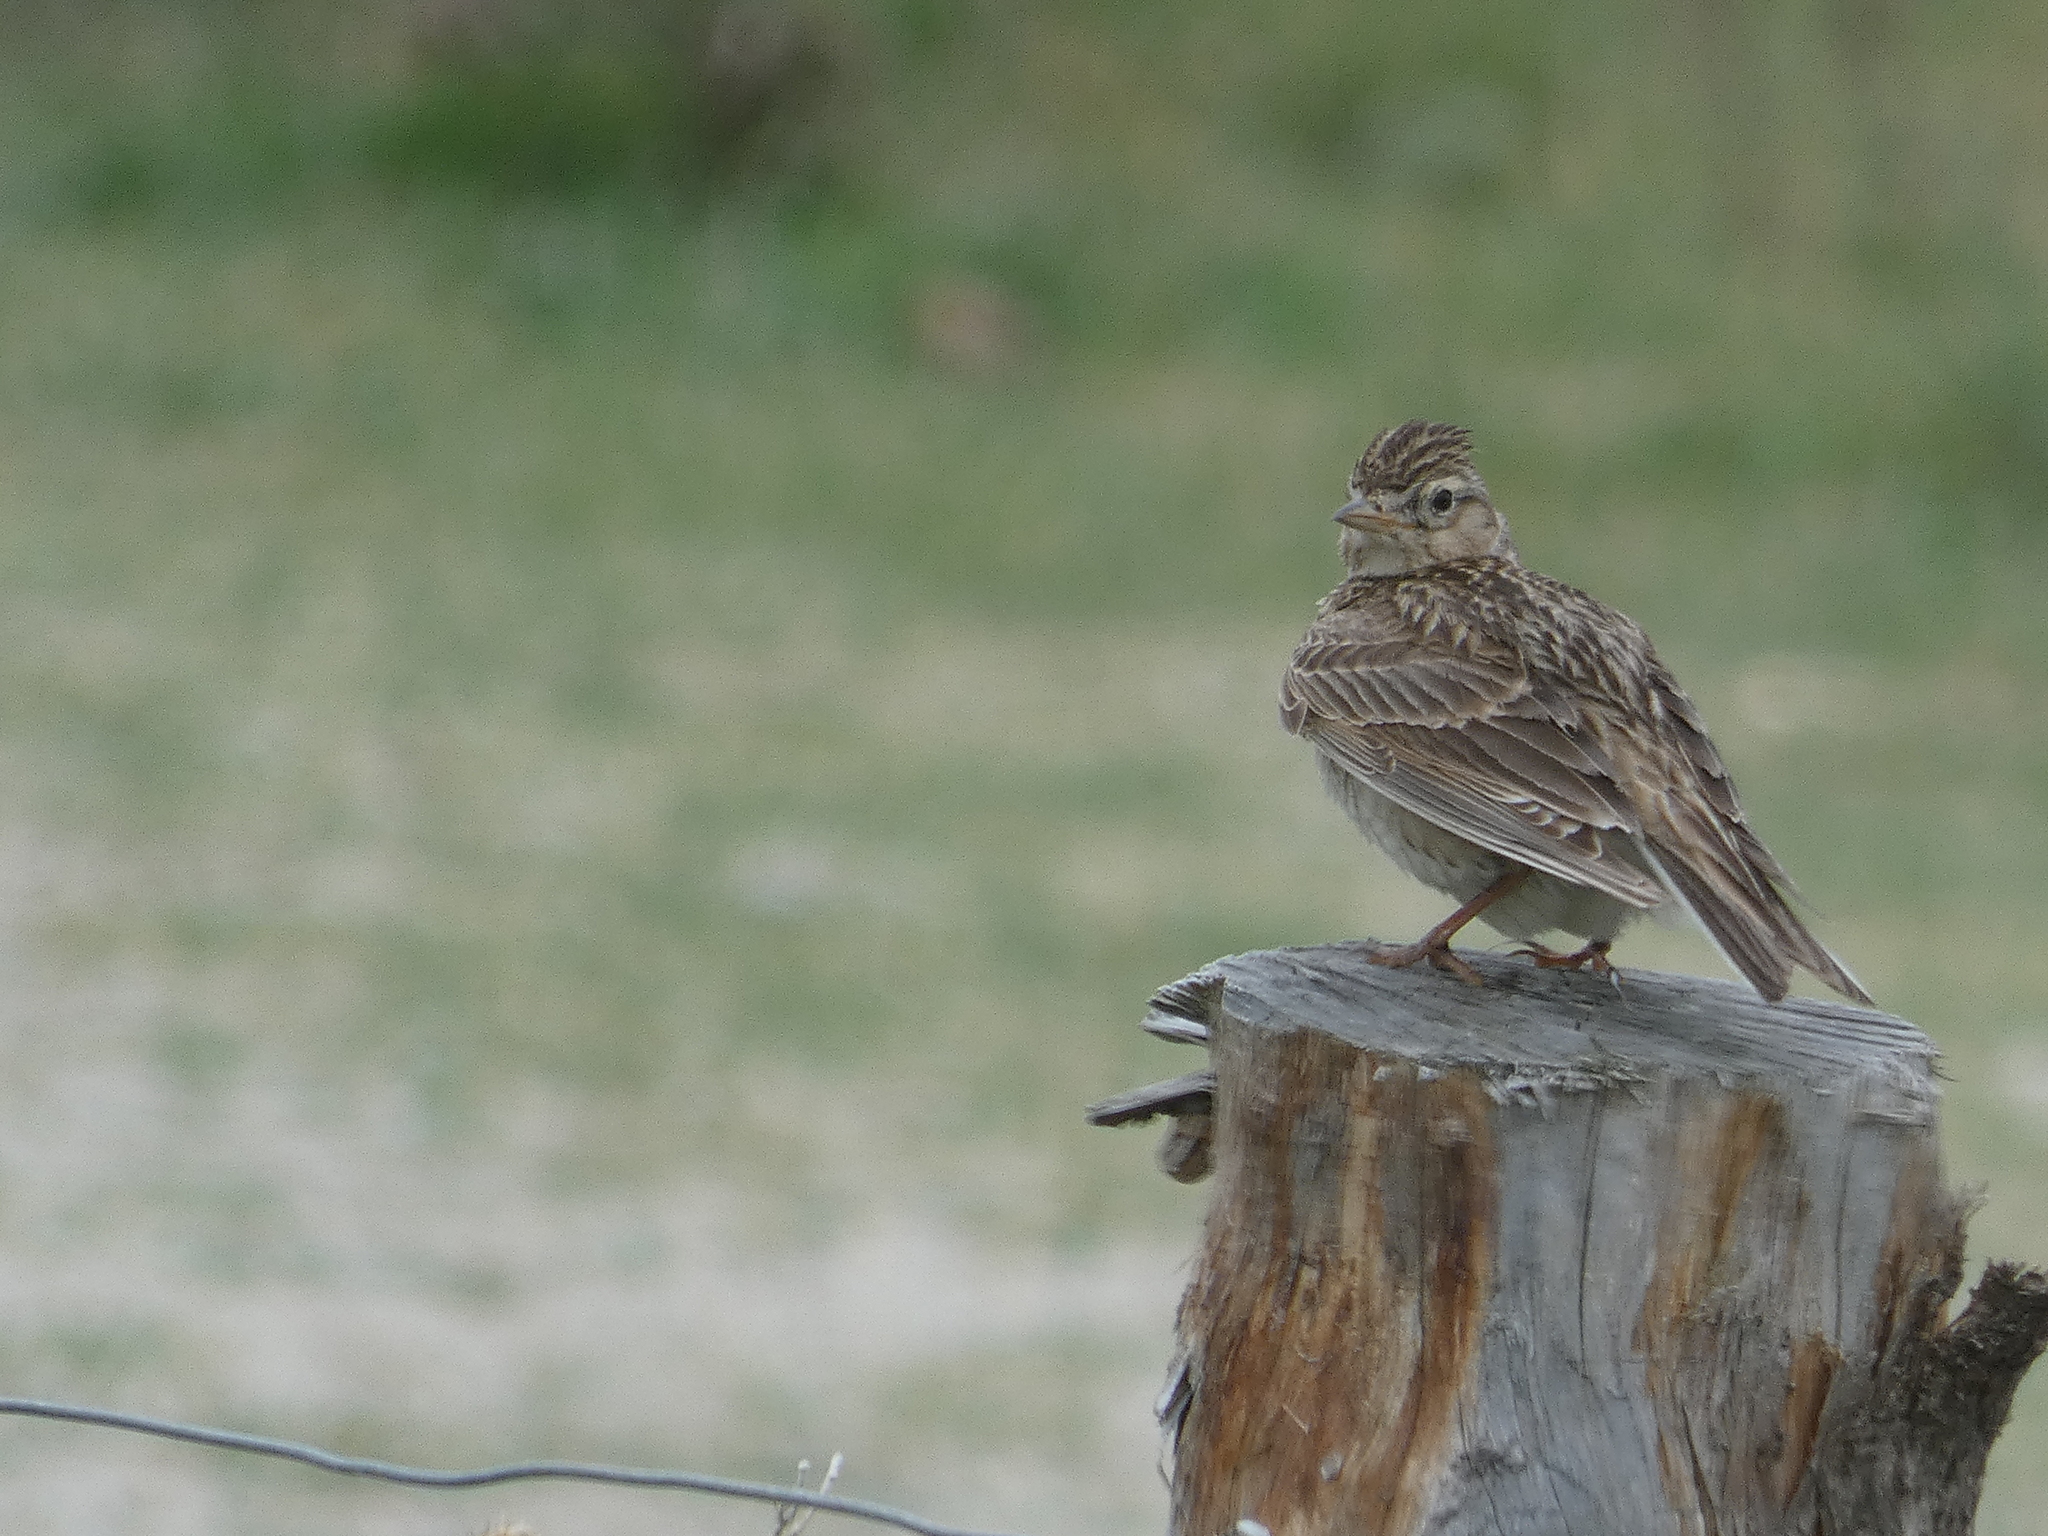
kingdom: Animalia
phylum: Chordata
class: Aves
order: Passeriformes
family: Alaudidae
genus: Alauda
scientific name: Alauda arvensis
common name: Eurasian skylark
